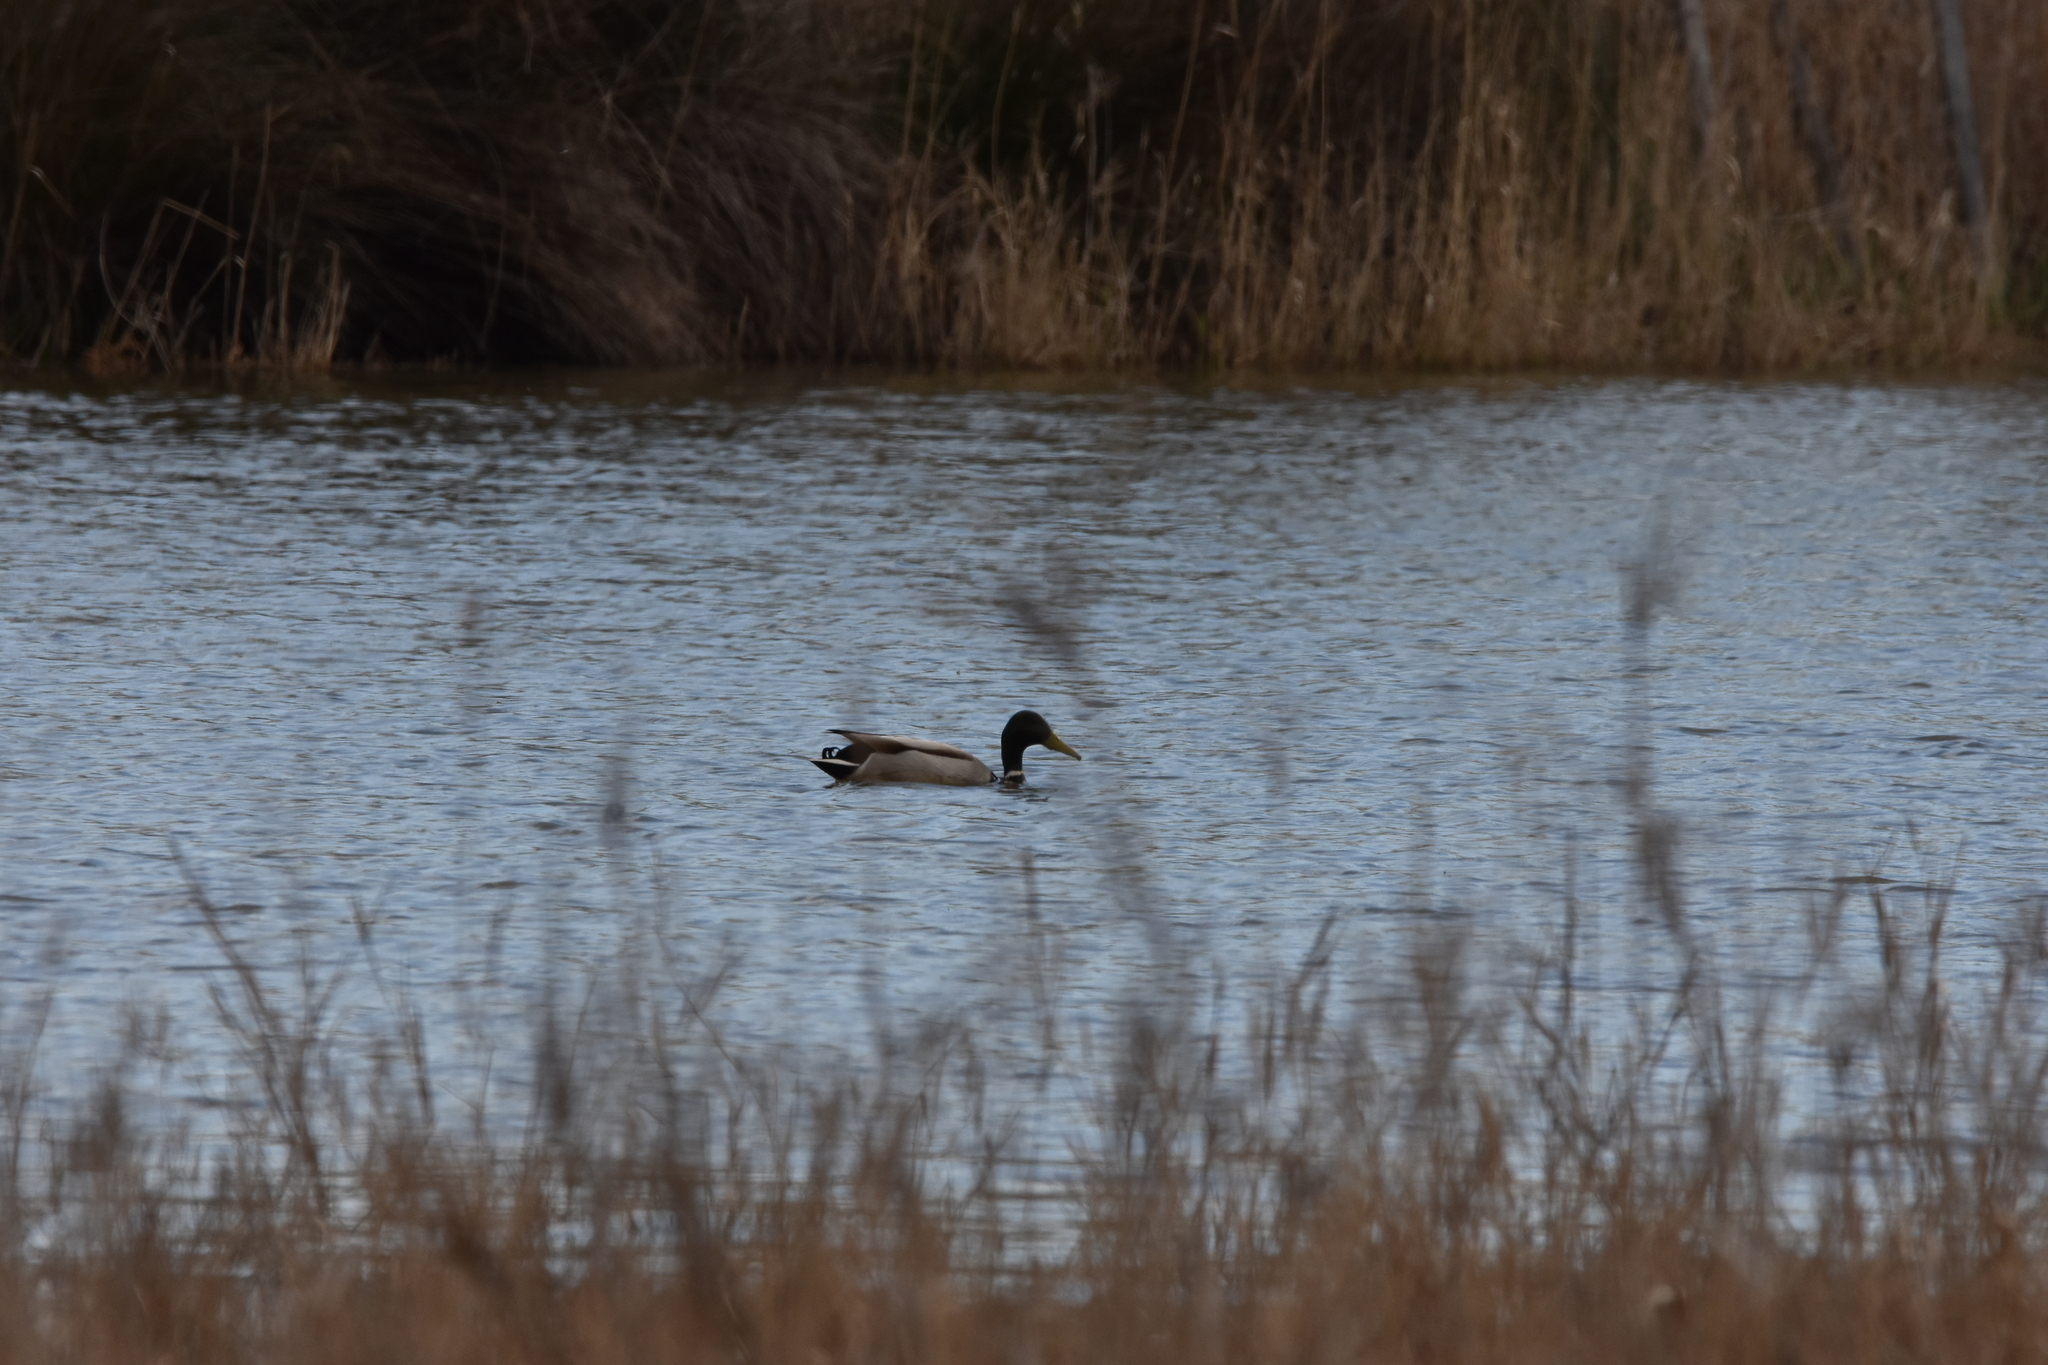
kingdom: Animalia
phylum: Chordata
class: Aves
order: Anseriformes
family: Anatidae
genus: Anas
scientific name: Anas platyrhynchos
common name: Mallard
